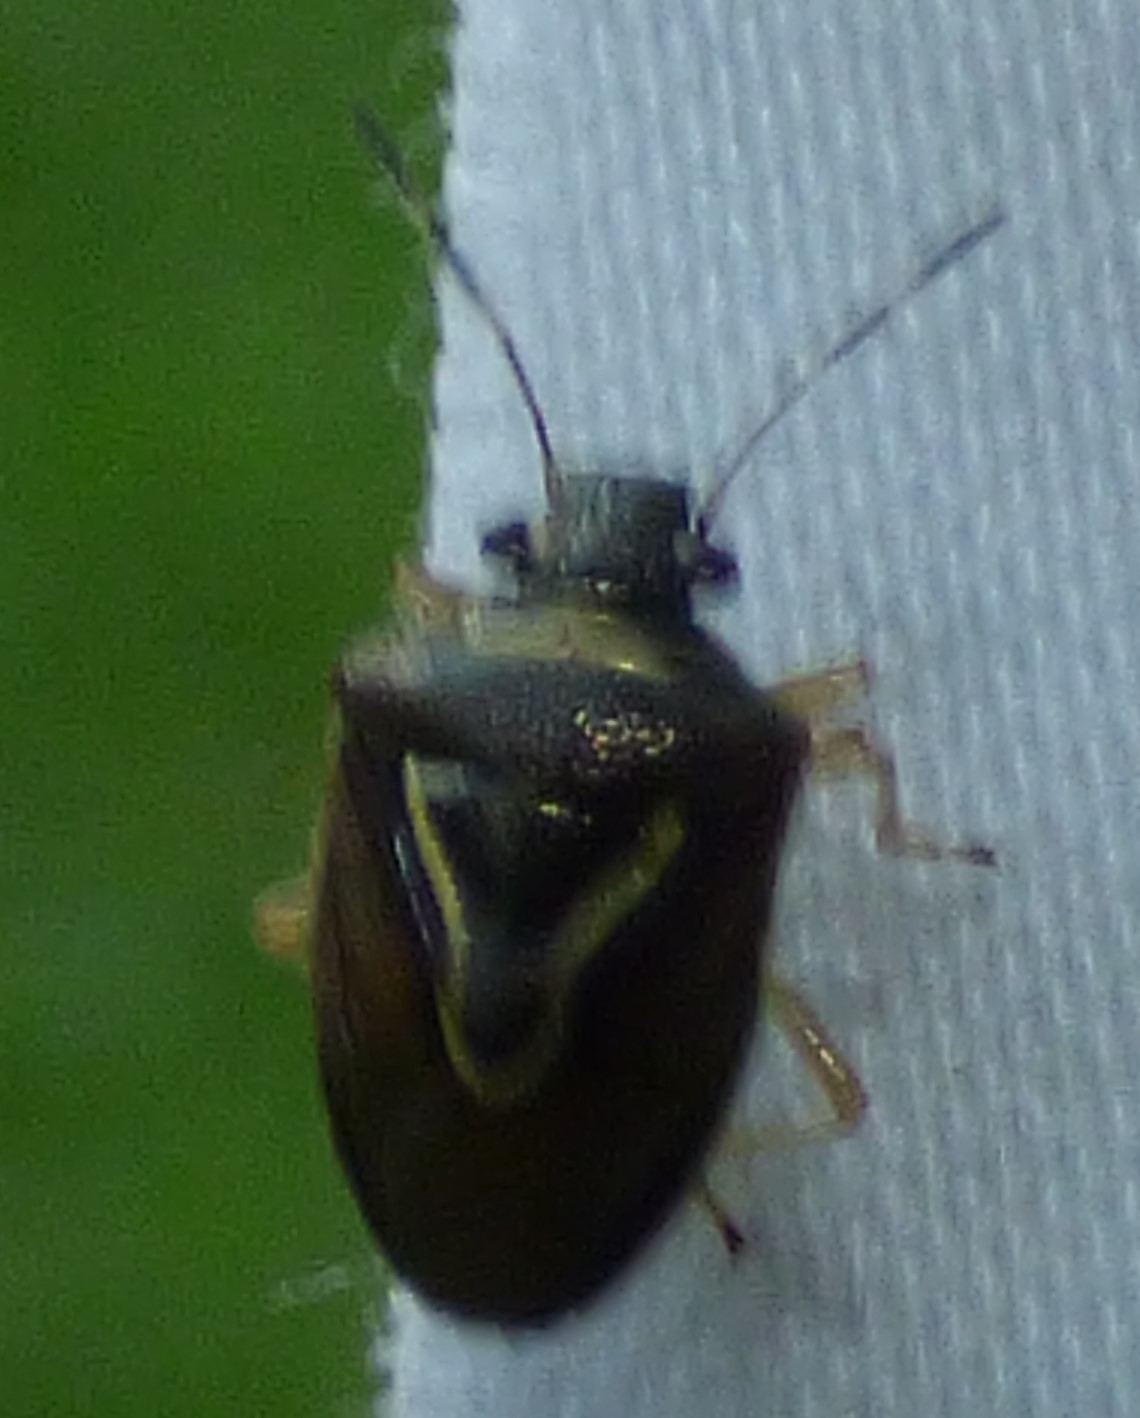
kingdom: Animalia
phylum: Arthropoda
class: Insecta
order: Hemiptera
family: Pentatomidae
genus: Mormidea
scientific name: Mormidea lugens
